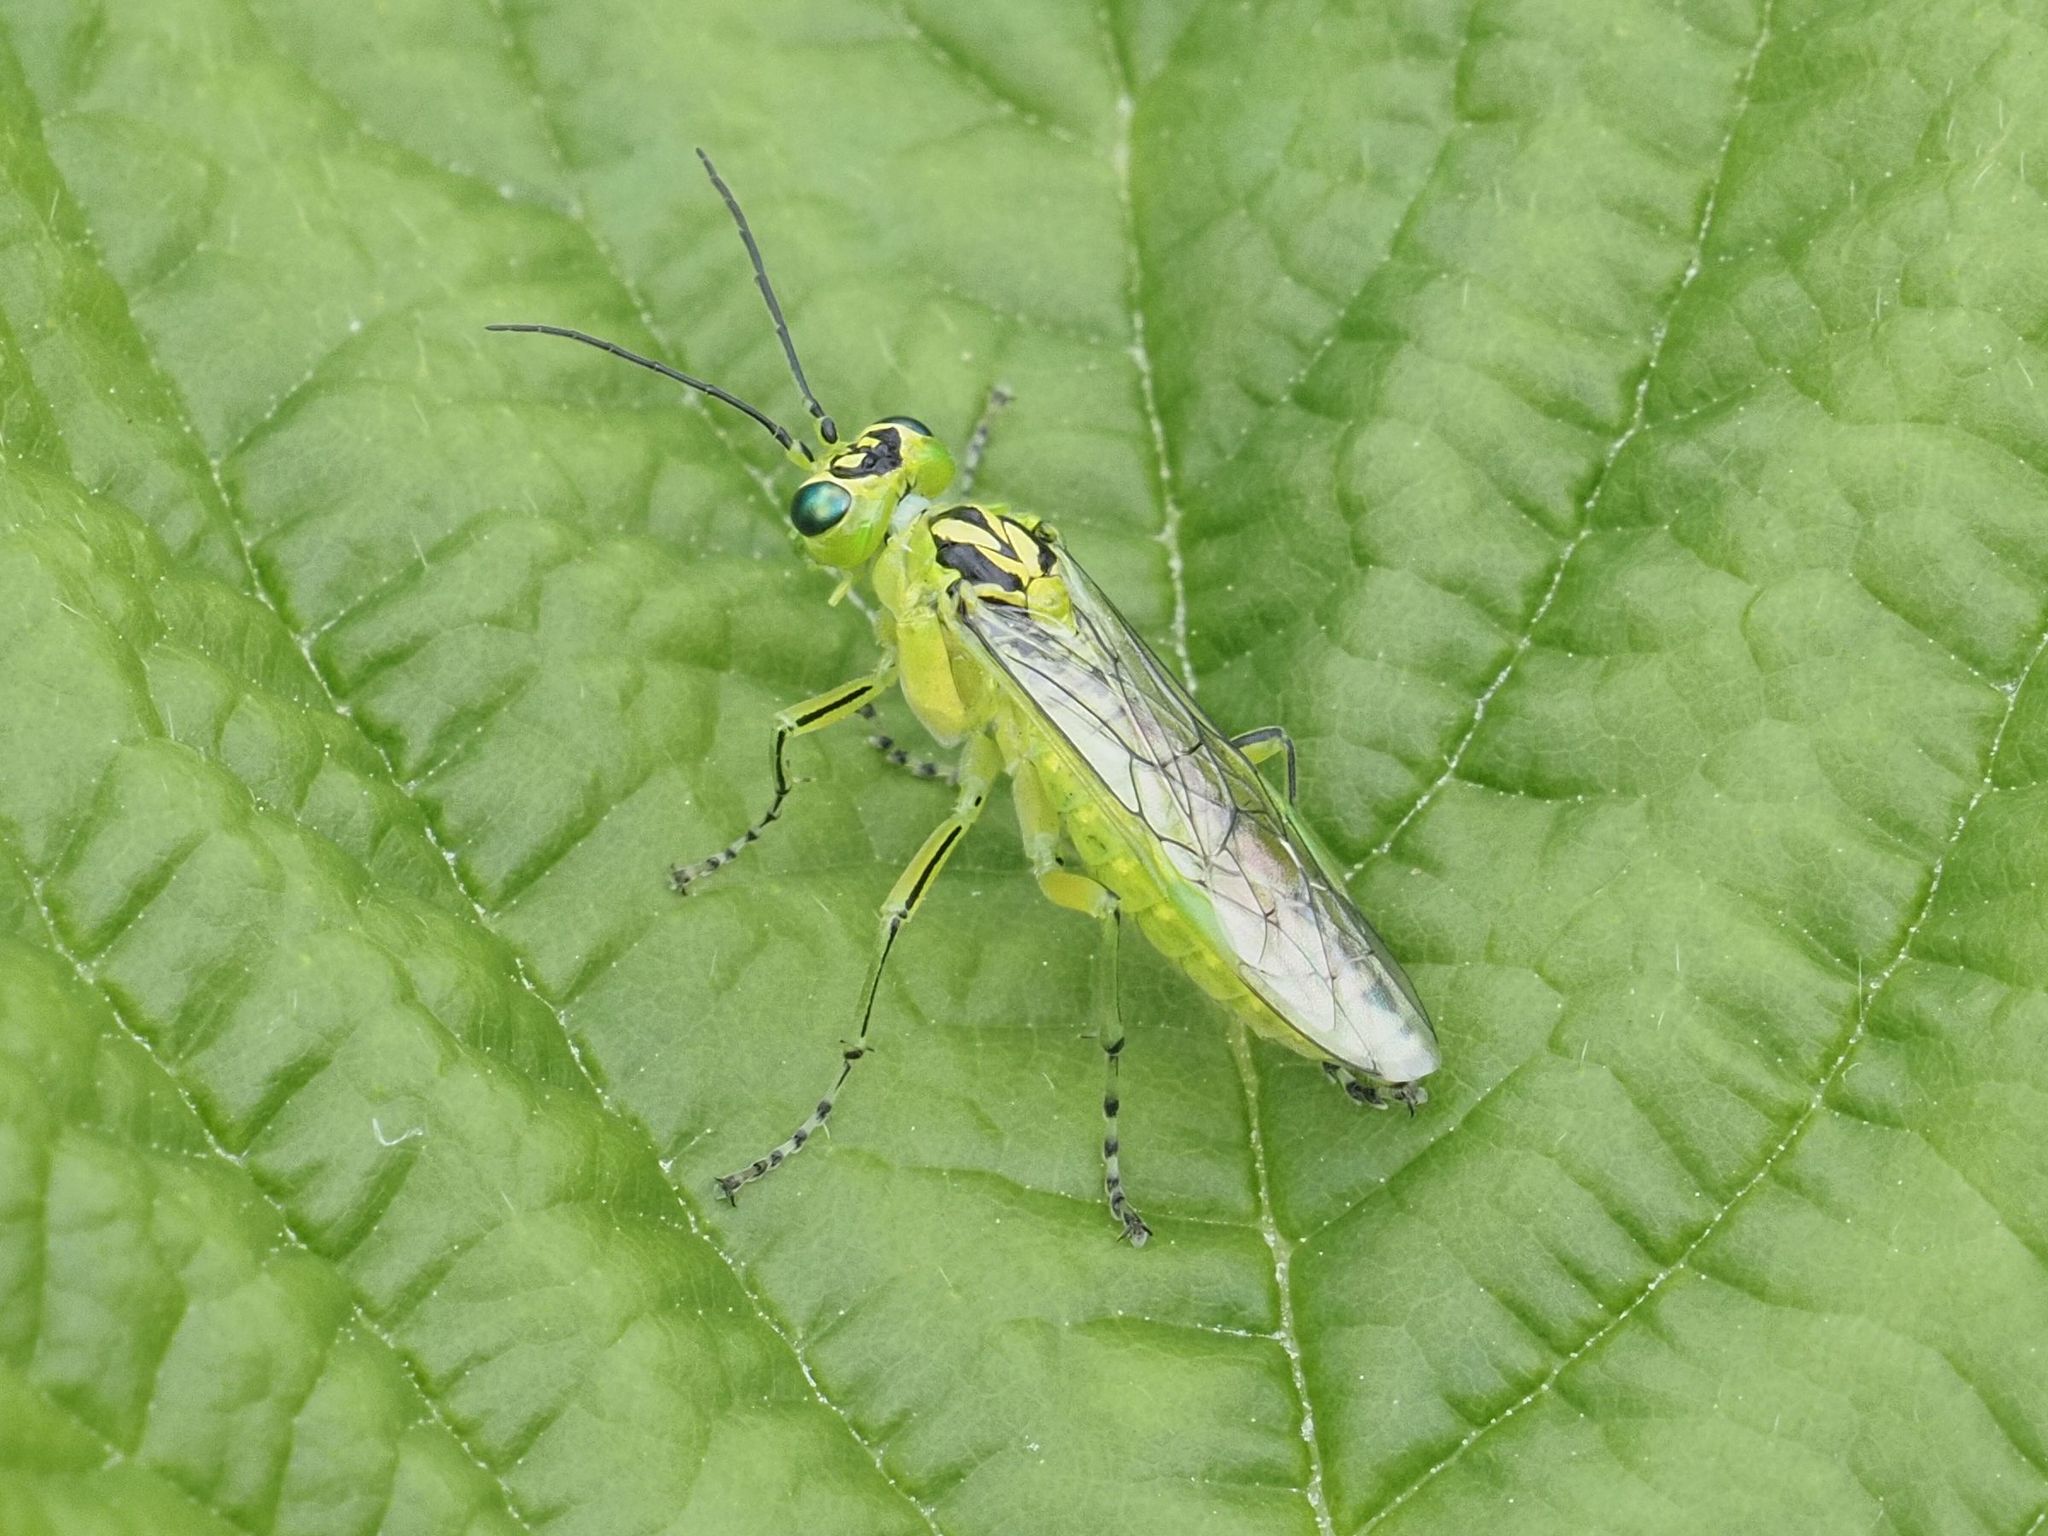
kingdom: Animalia
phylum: Arthropoda
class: Insecta
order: Hymenoptera
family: Tenthredinidae
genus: Rhogogaster
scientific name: Rhogogaster chlorosoma
